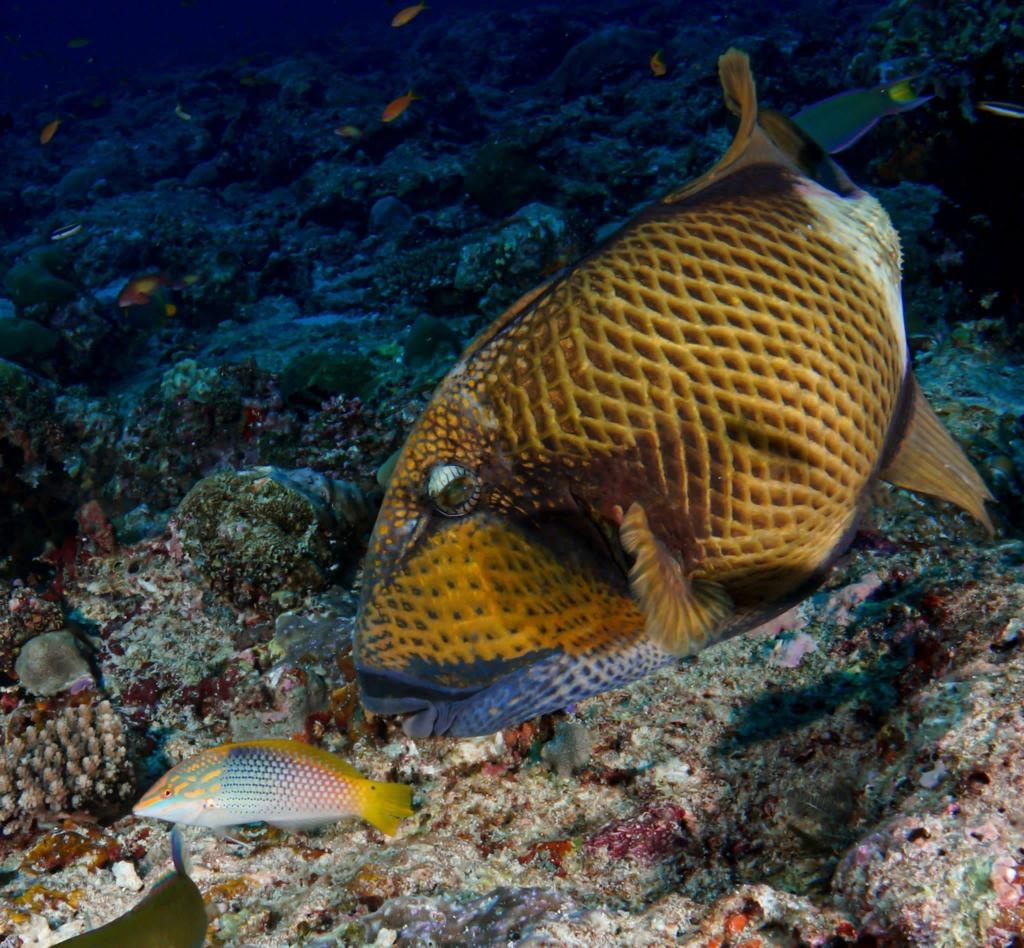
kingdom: Animalia
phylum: Chordata
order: Tetraodontiformes
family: Balistidae
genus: Balistoides
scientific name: Balistoides viridescens
